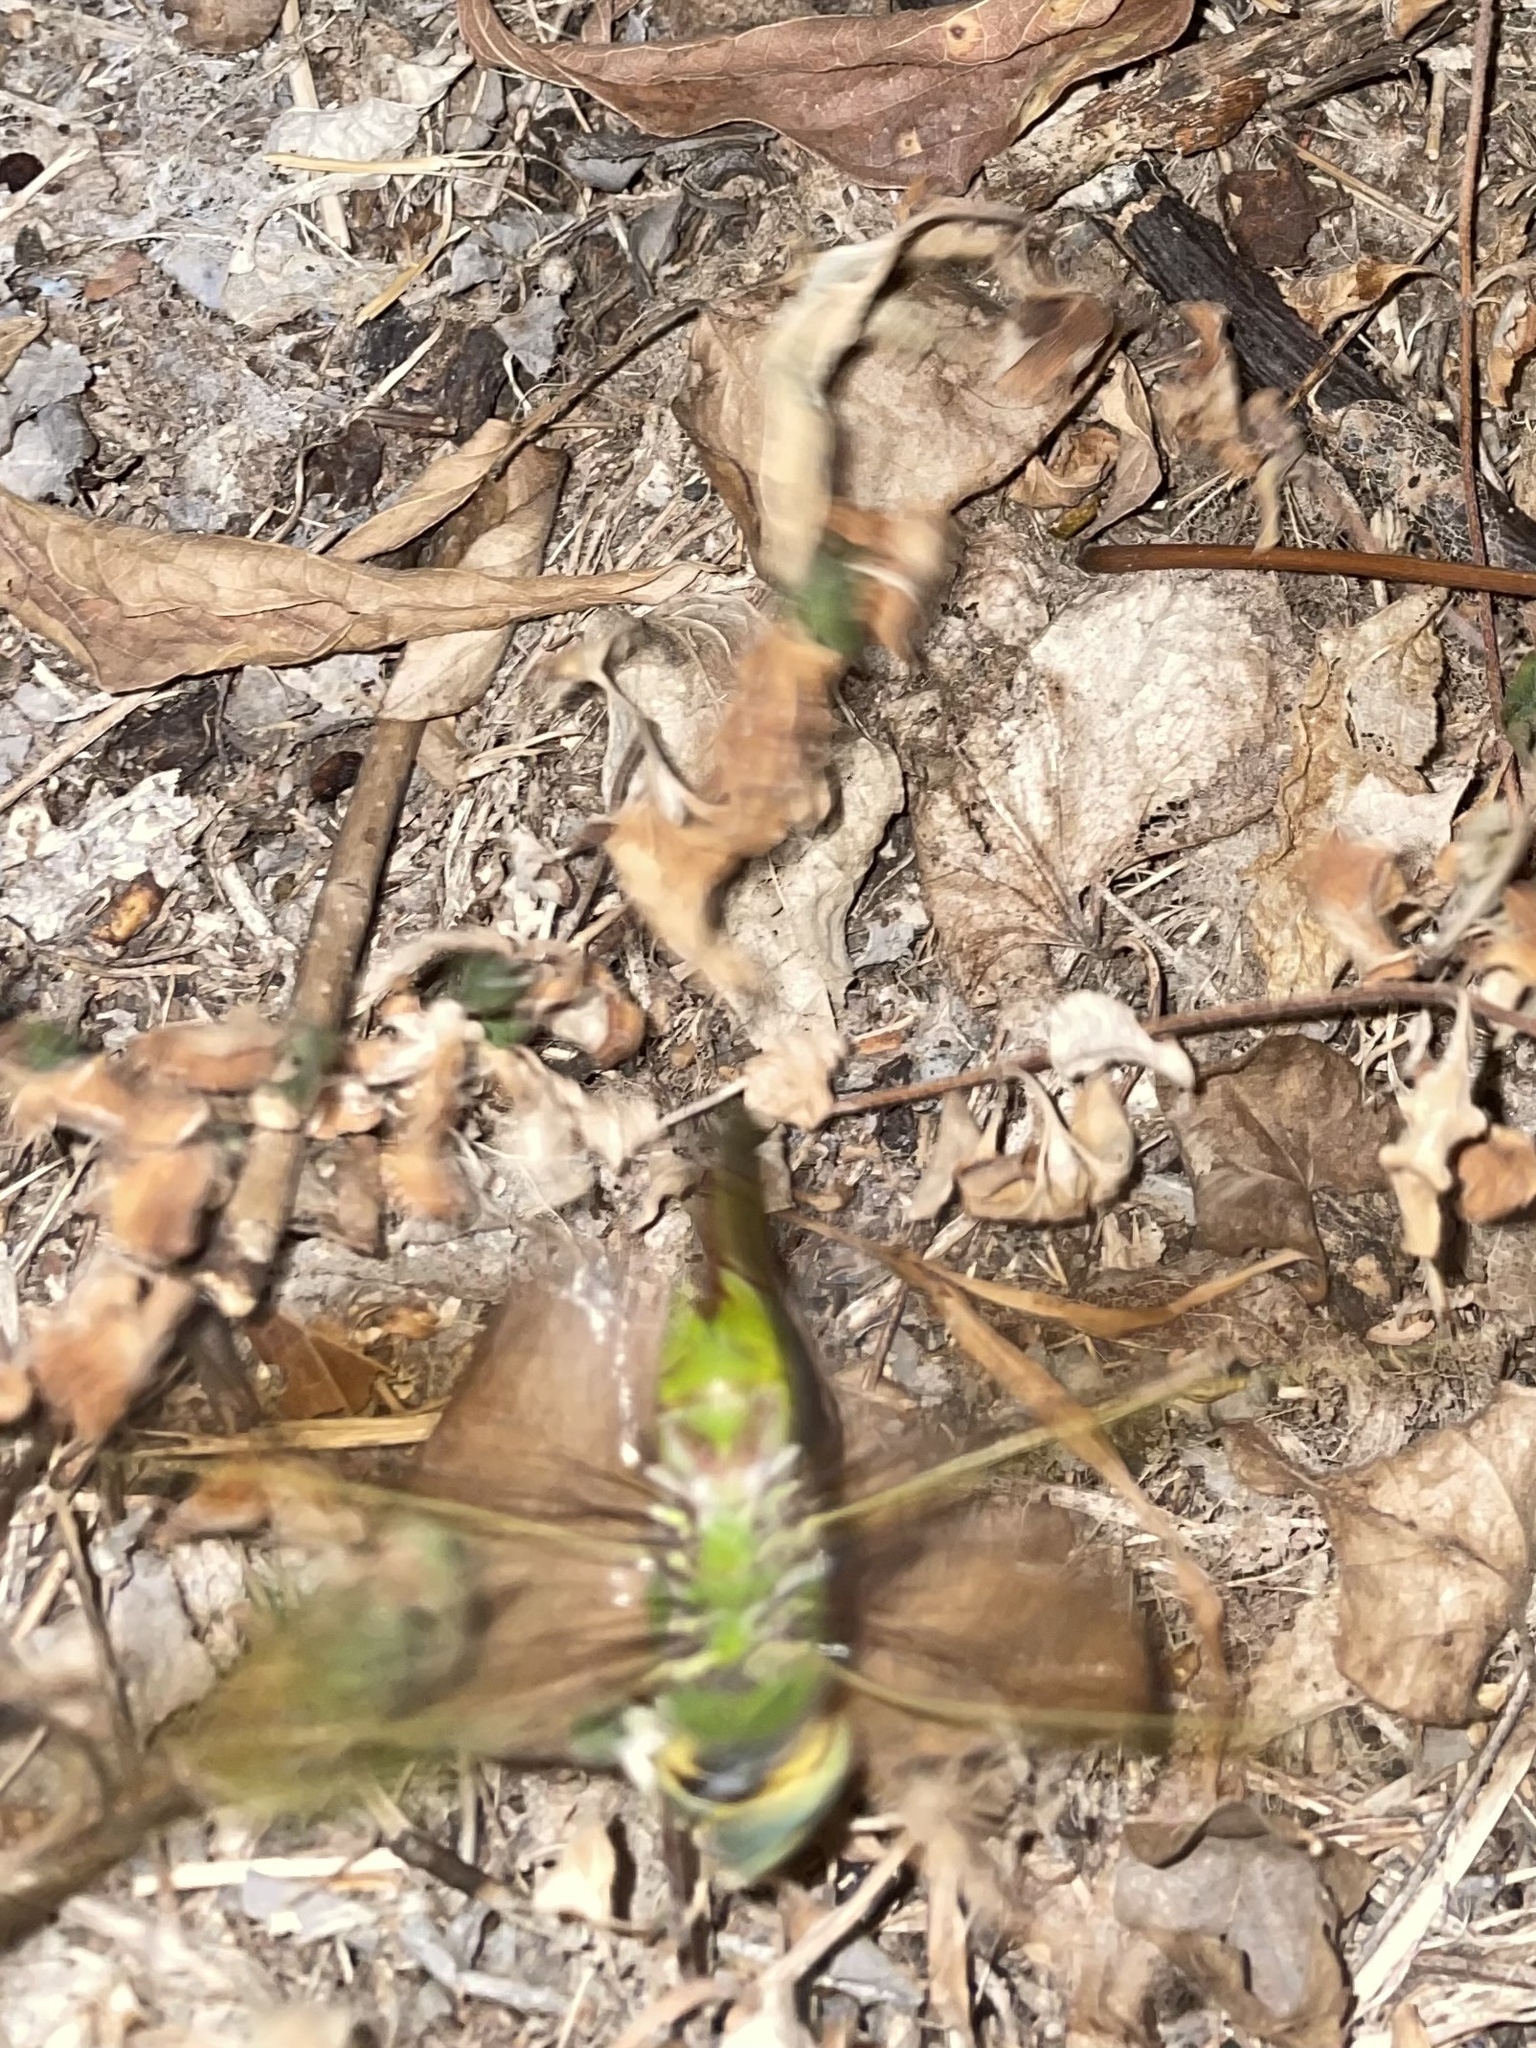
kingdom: Animalia
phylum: Arthropoda
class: Insecta
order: Odonata
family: Aeshnidae
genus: Anax
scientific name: Anax junius
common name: Common green darner
